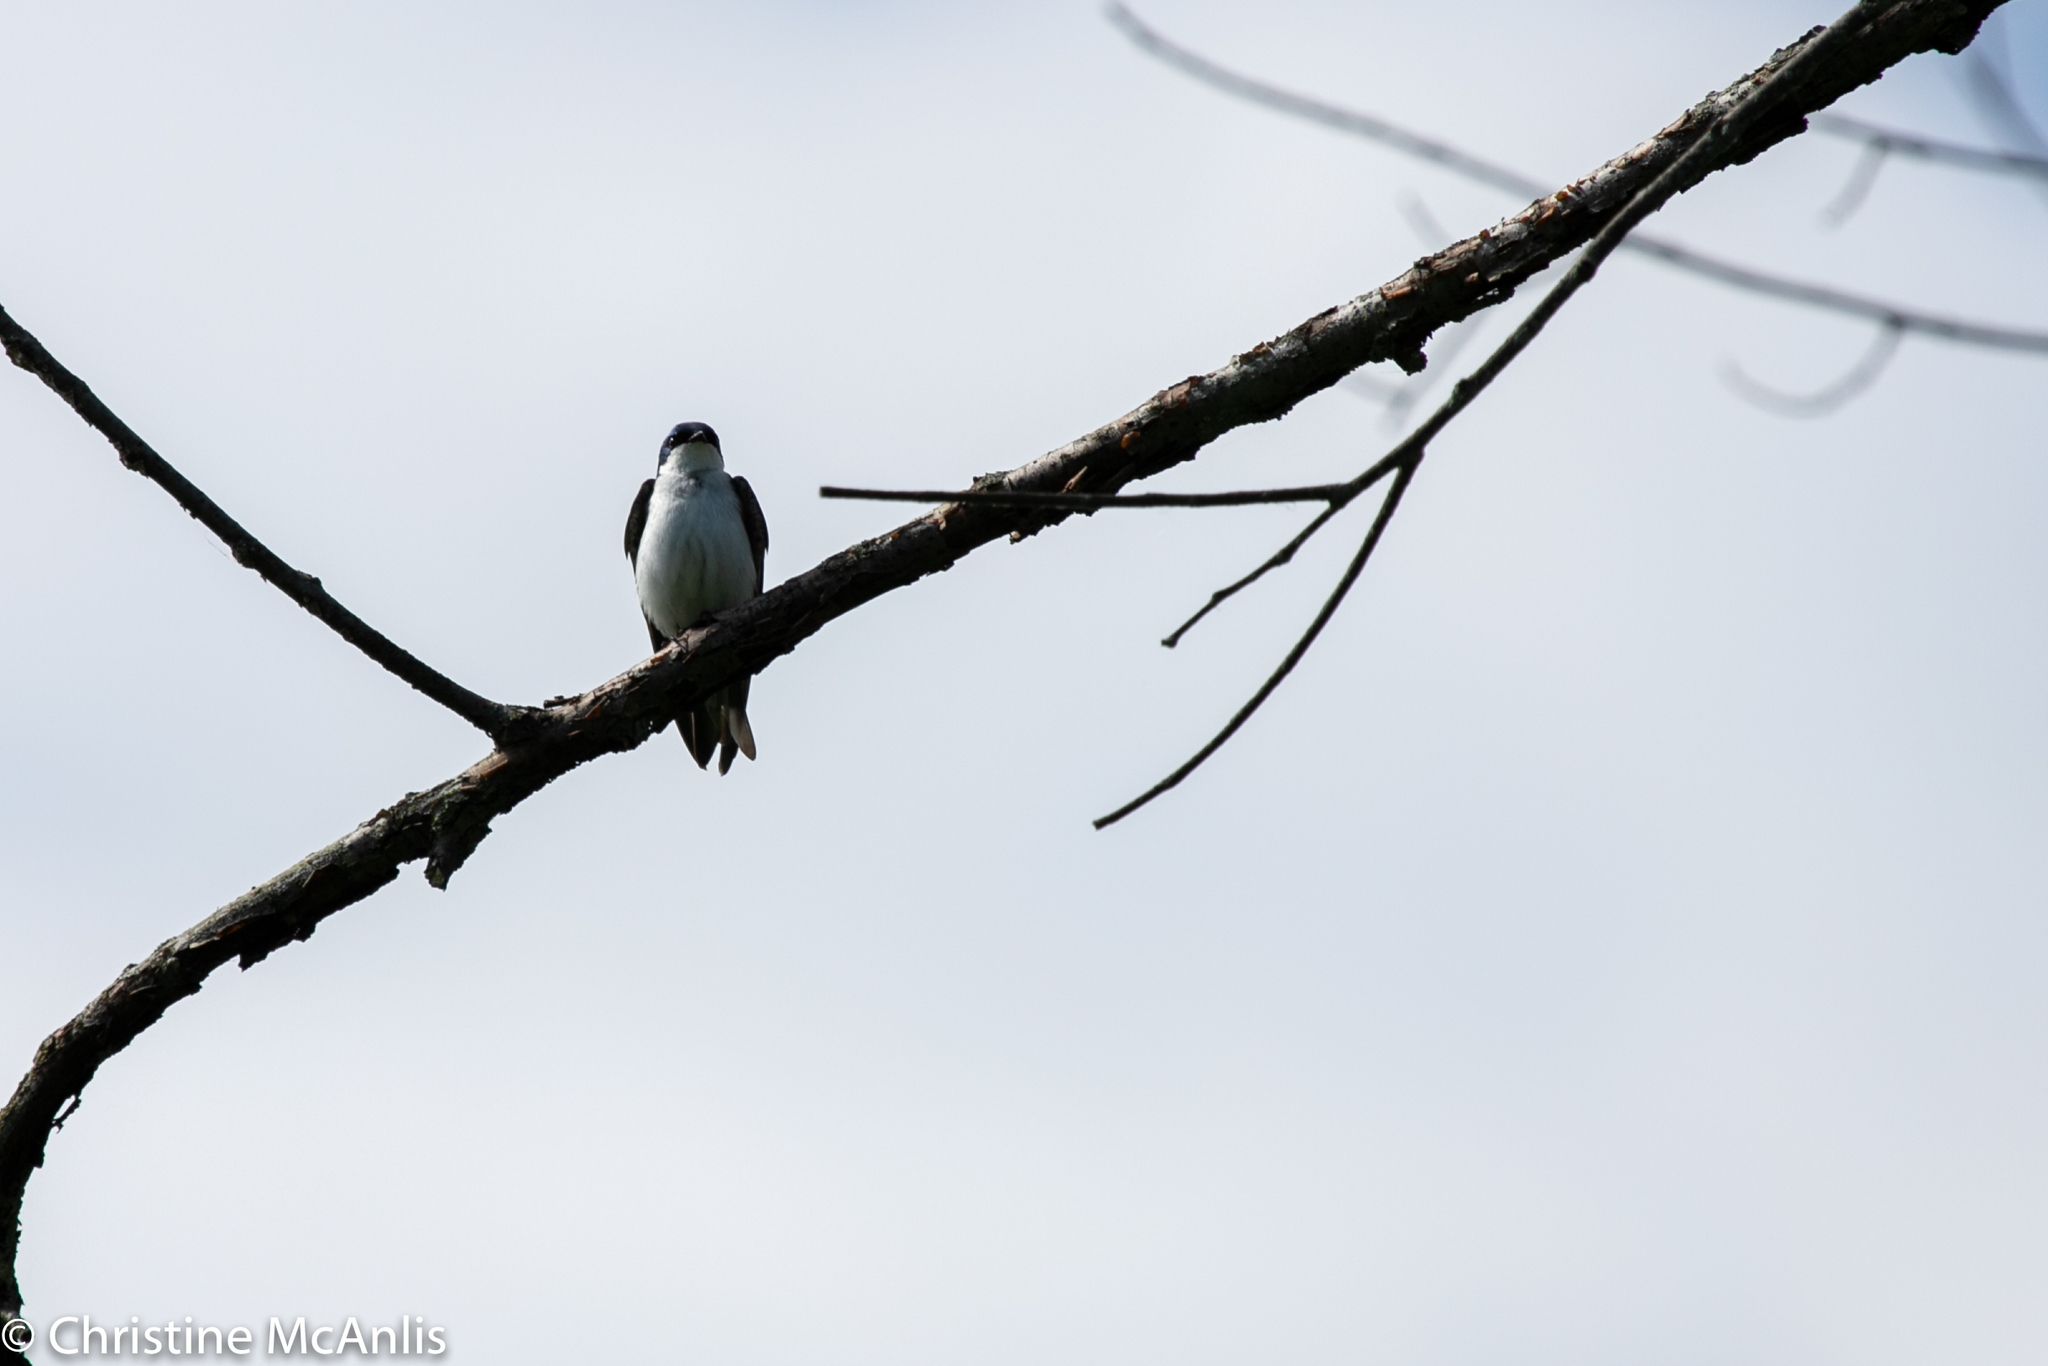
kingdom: Animalia
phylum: Chordata
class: Aves
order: Passeriformes
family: Hirundinidae
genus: Tachycineta
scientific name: Tachycineta bicolor
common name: Tree swallow
